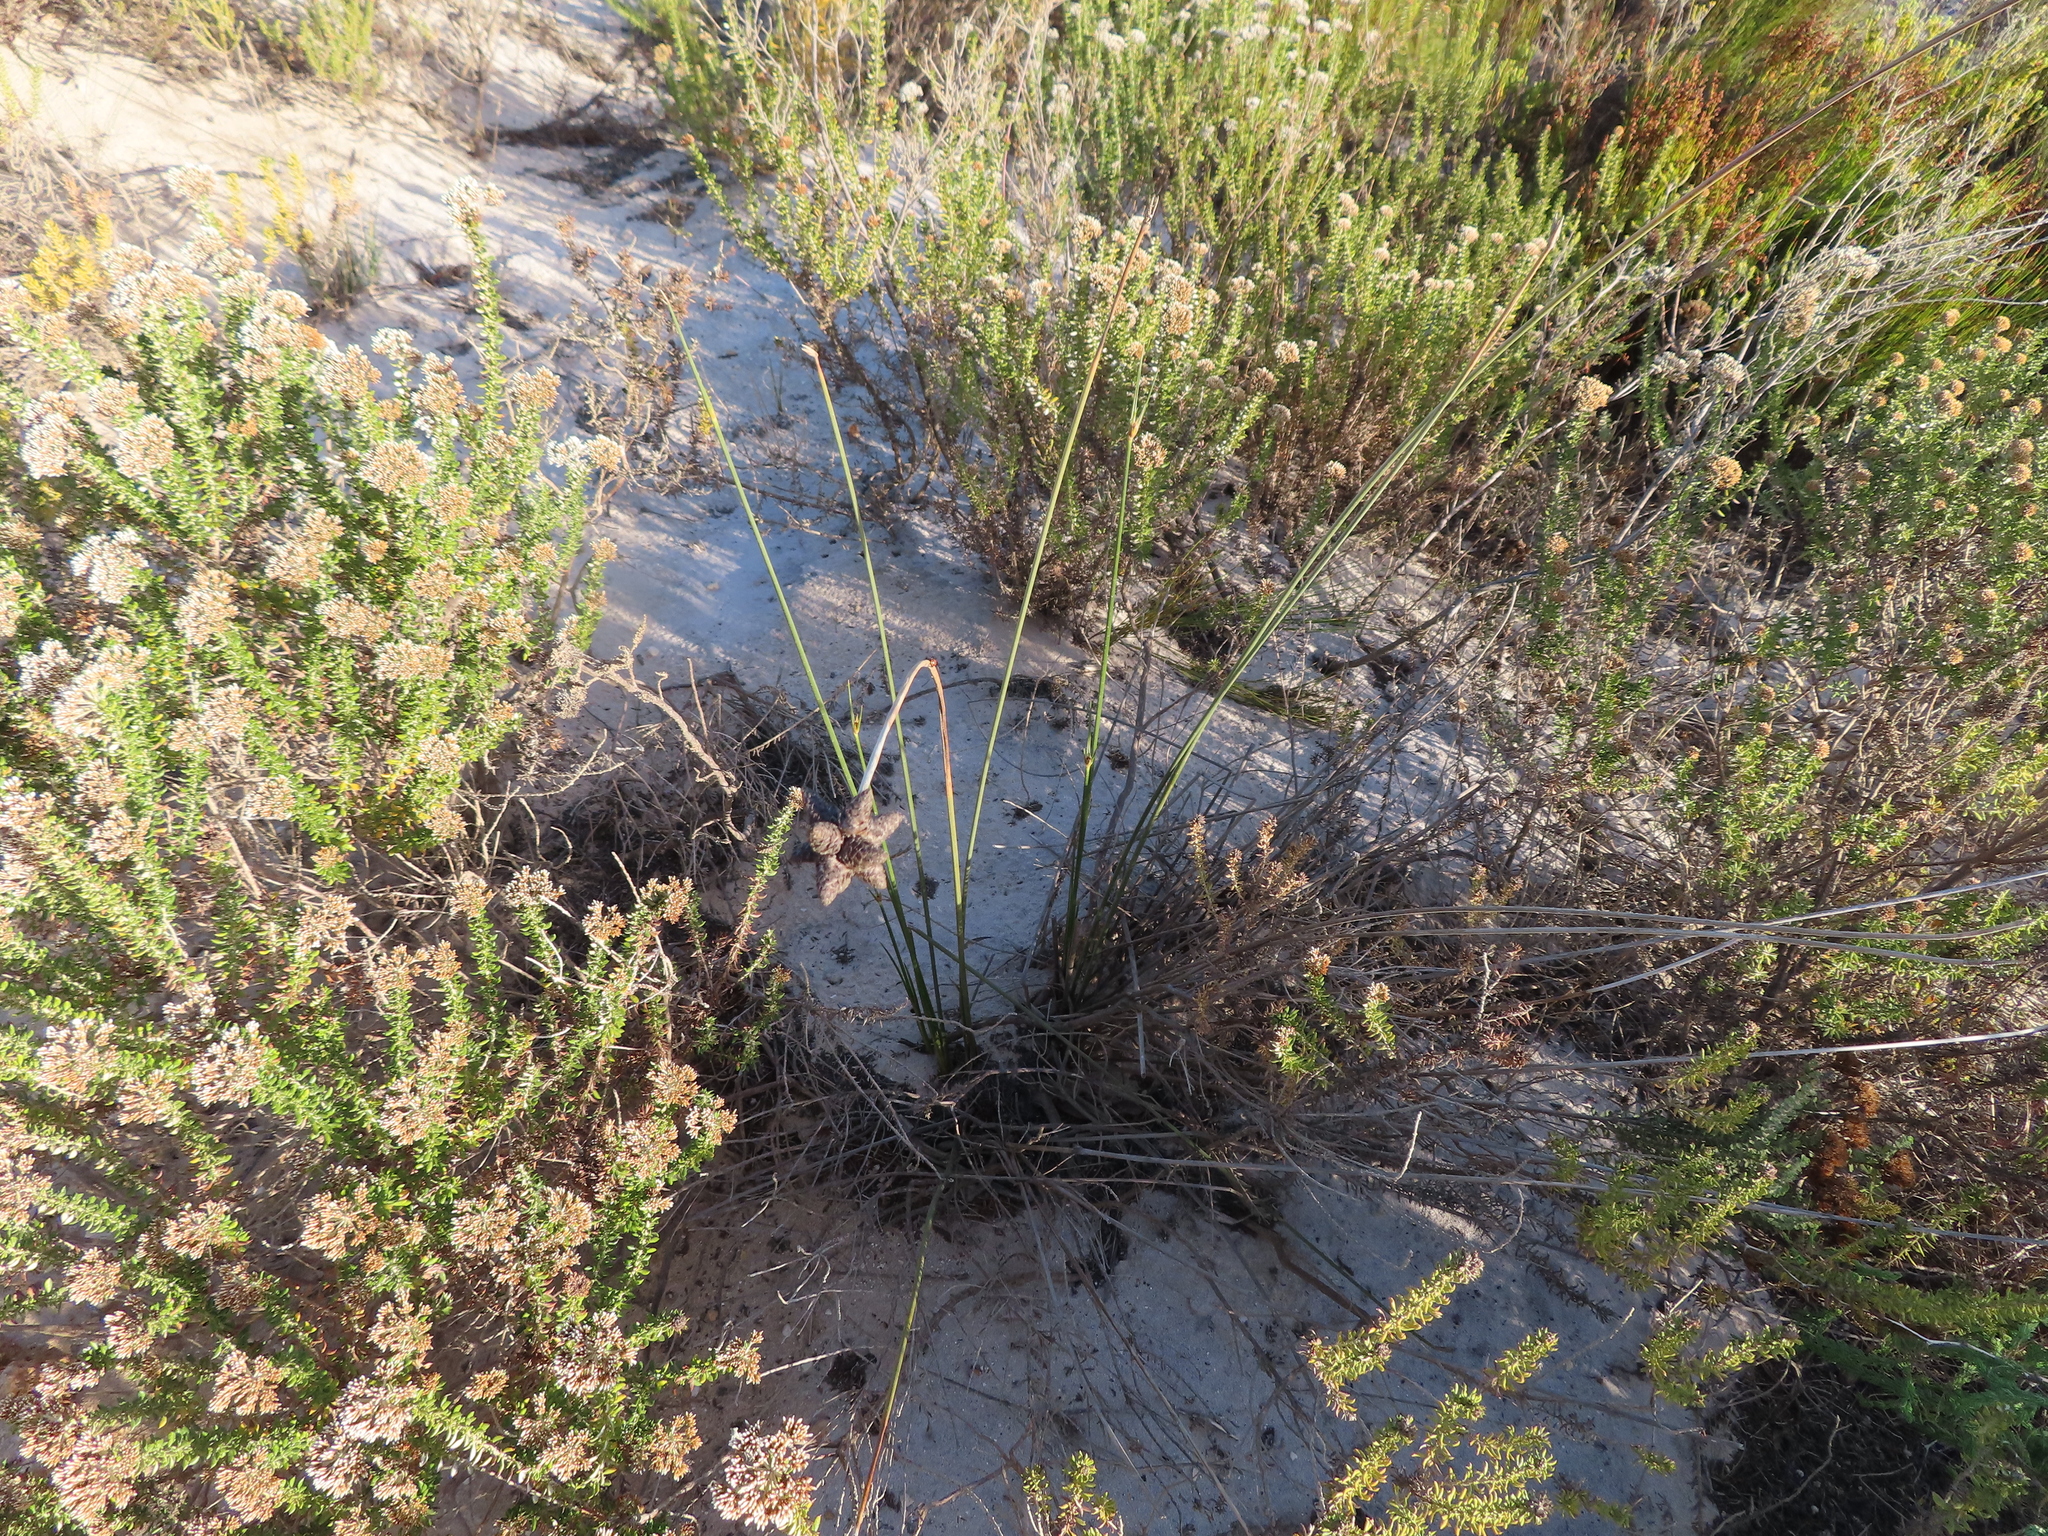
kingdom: Plantae
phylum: Tracheophyta
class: Liliopsida
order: Poales
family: Cyperaceae
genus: Hellmuthia
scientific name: Hellmuthia membranacea
